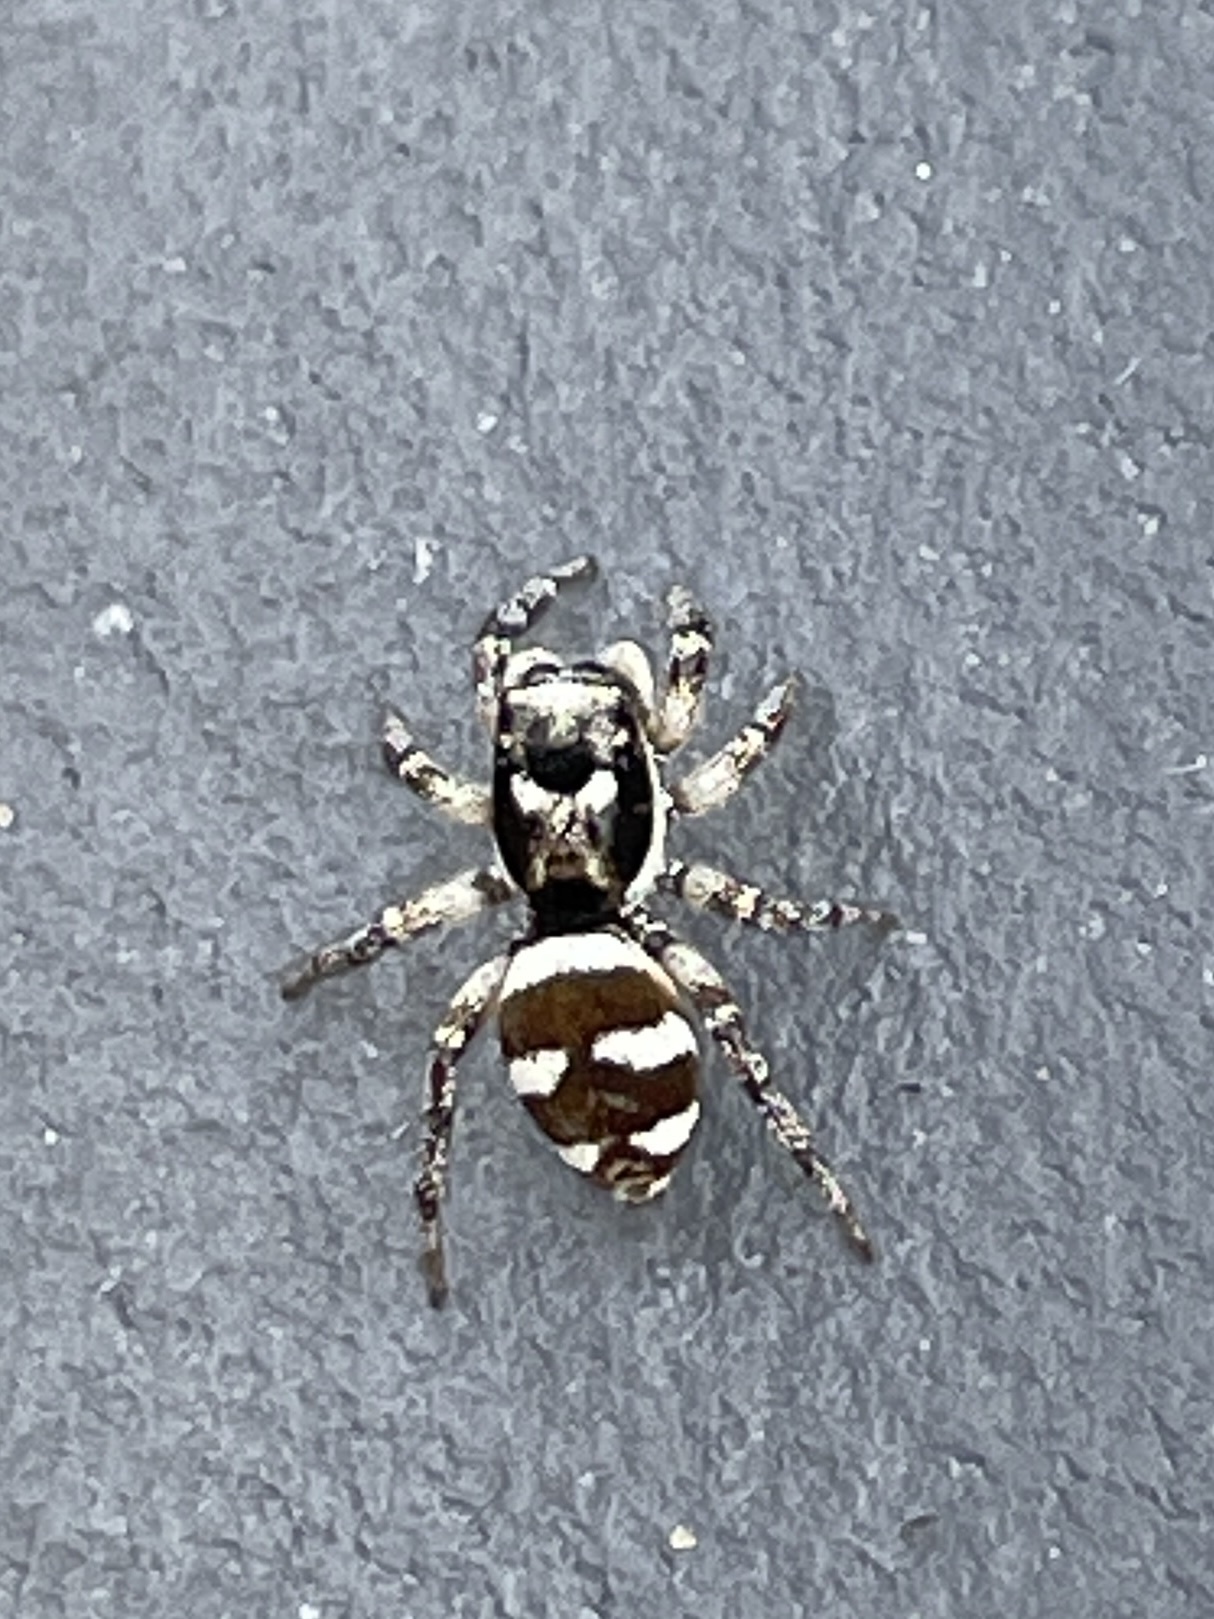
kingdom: Animalia
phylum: Arthropoda
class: Arachnida
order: Araneae
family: Salticidae
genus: Salticus
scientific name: Salticus scenicus
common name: Zebra jumper
